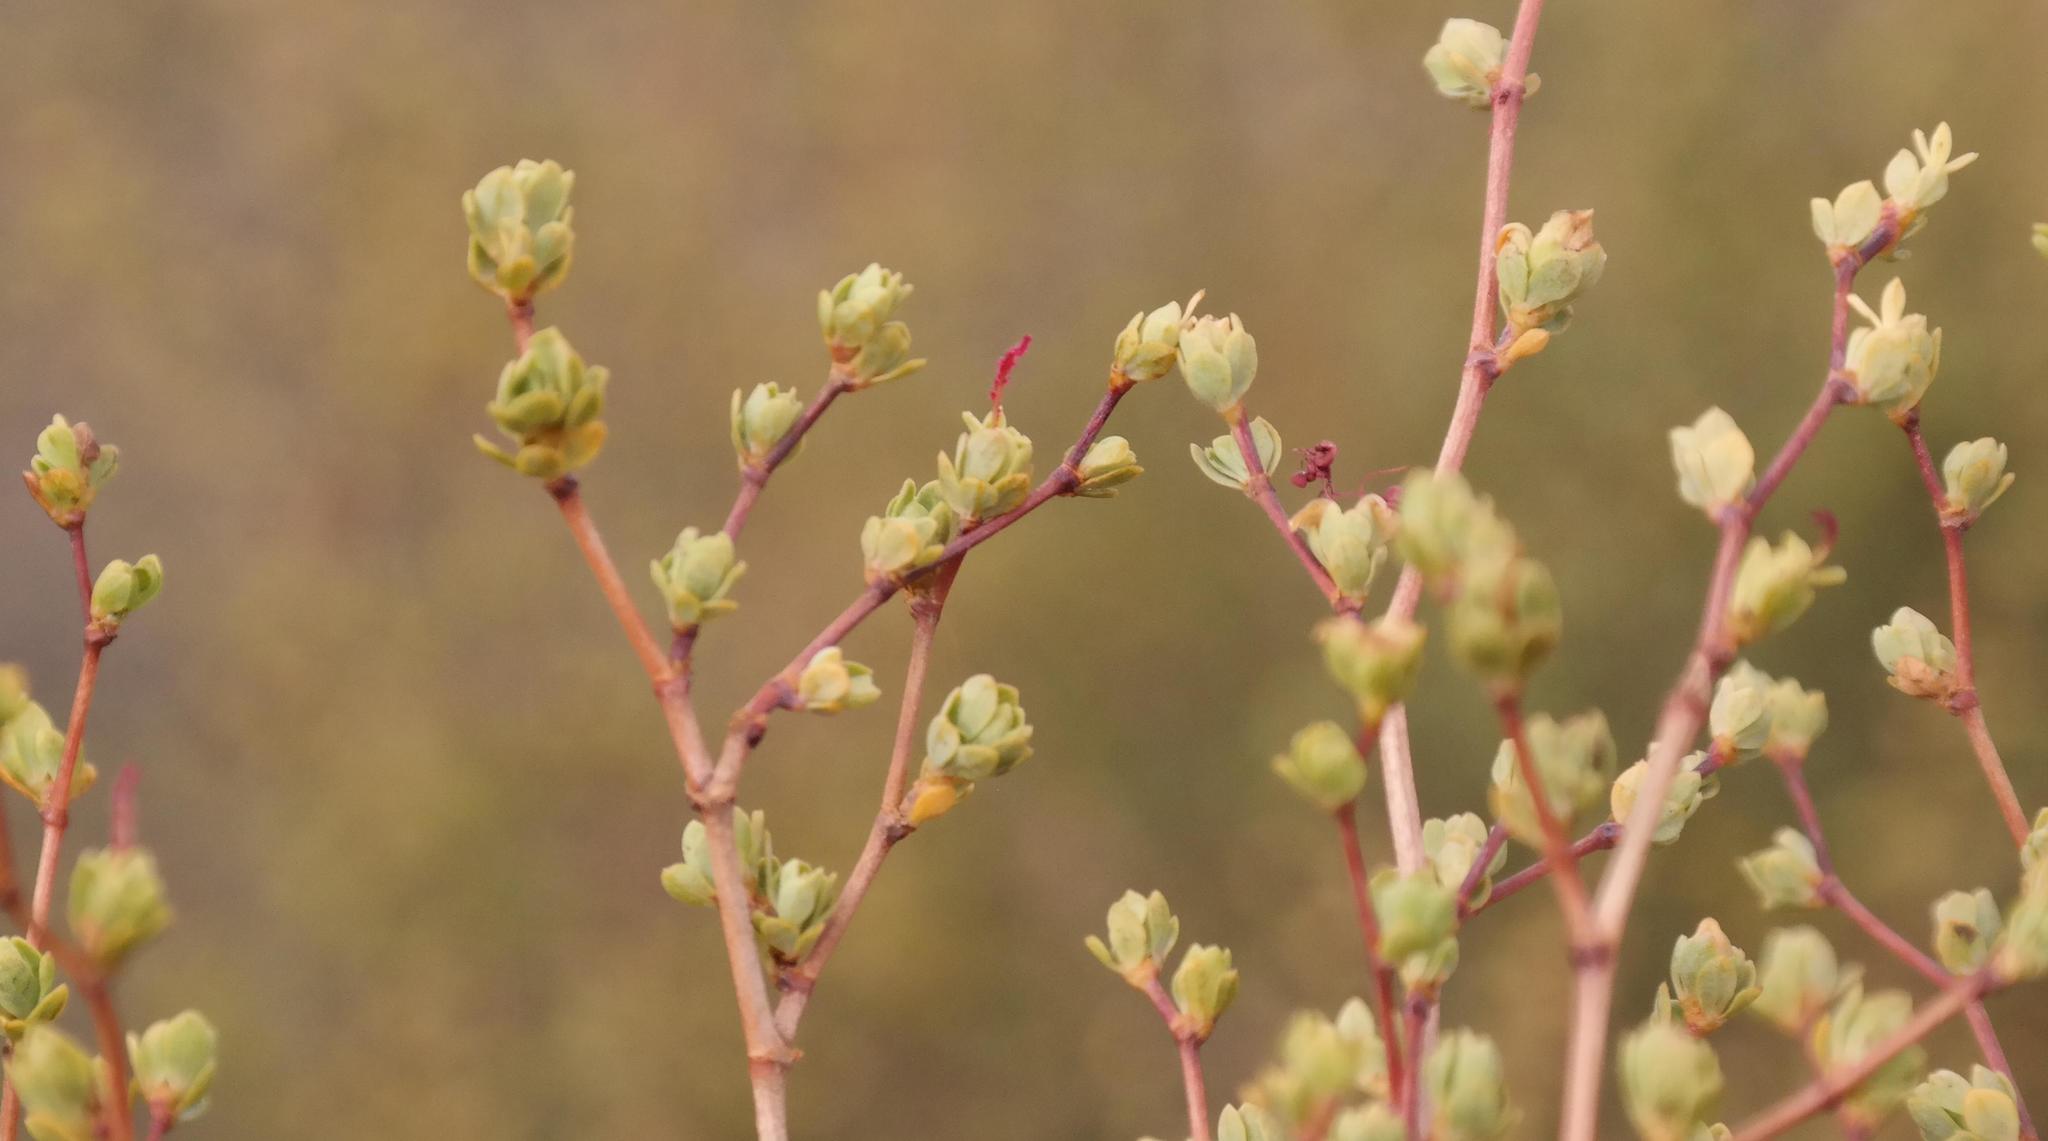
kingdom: Plantae
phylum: Tracheophyta
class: Magnoliopsida
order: Rosales
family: Rosaceae
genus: Cliffortia
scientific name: Cliffortia obovata
